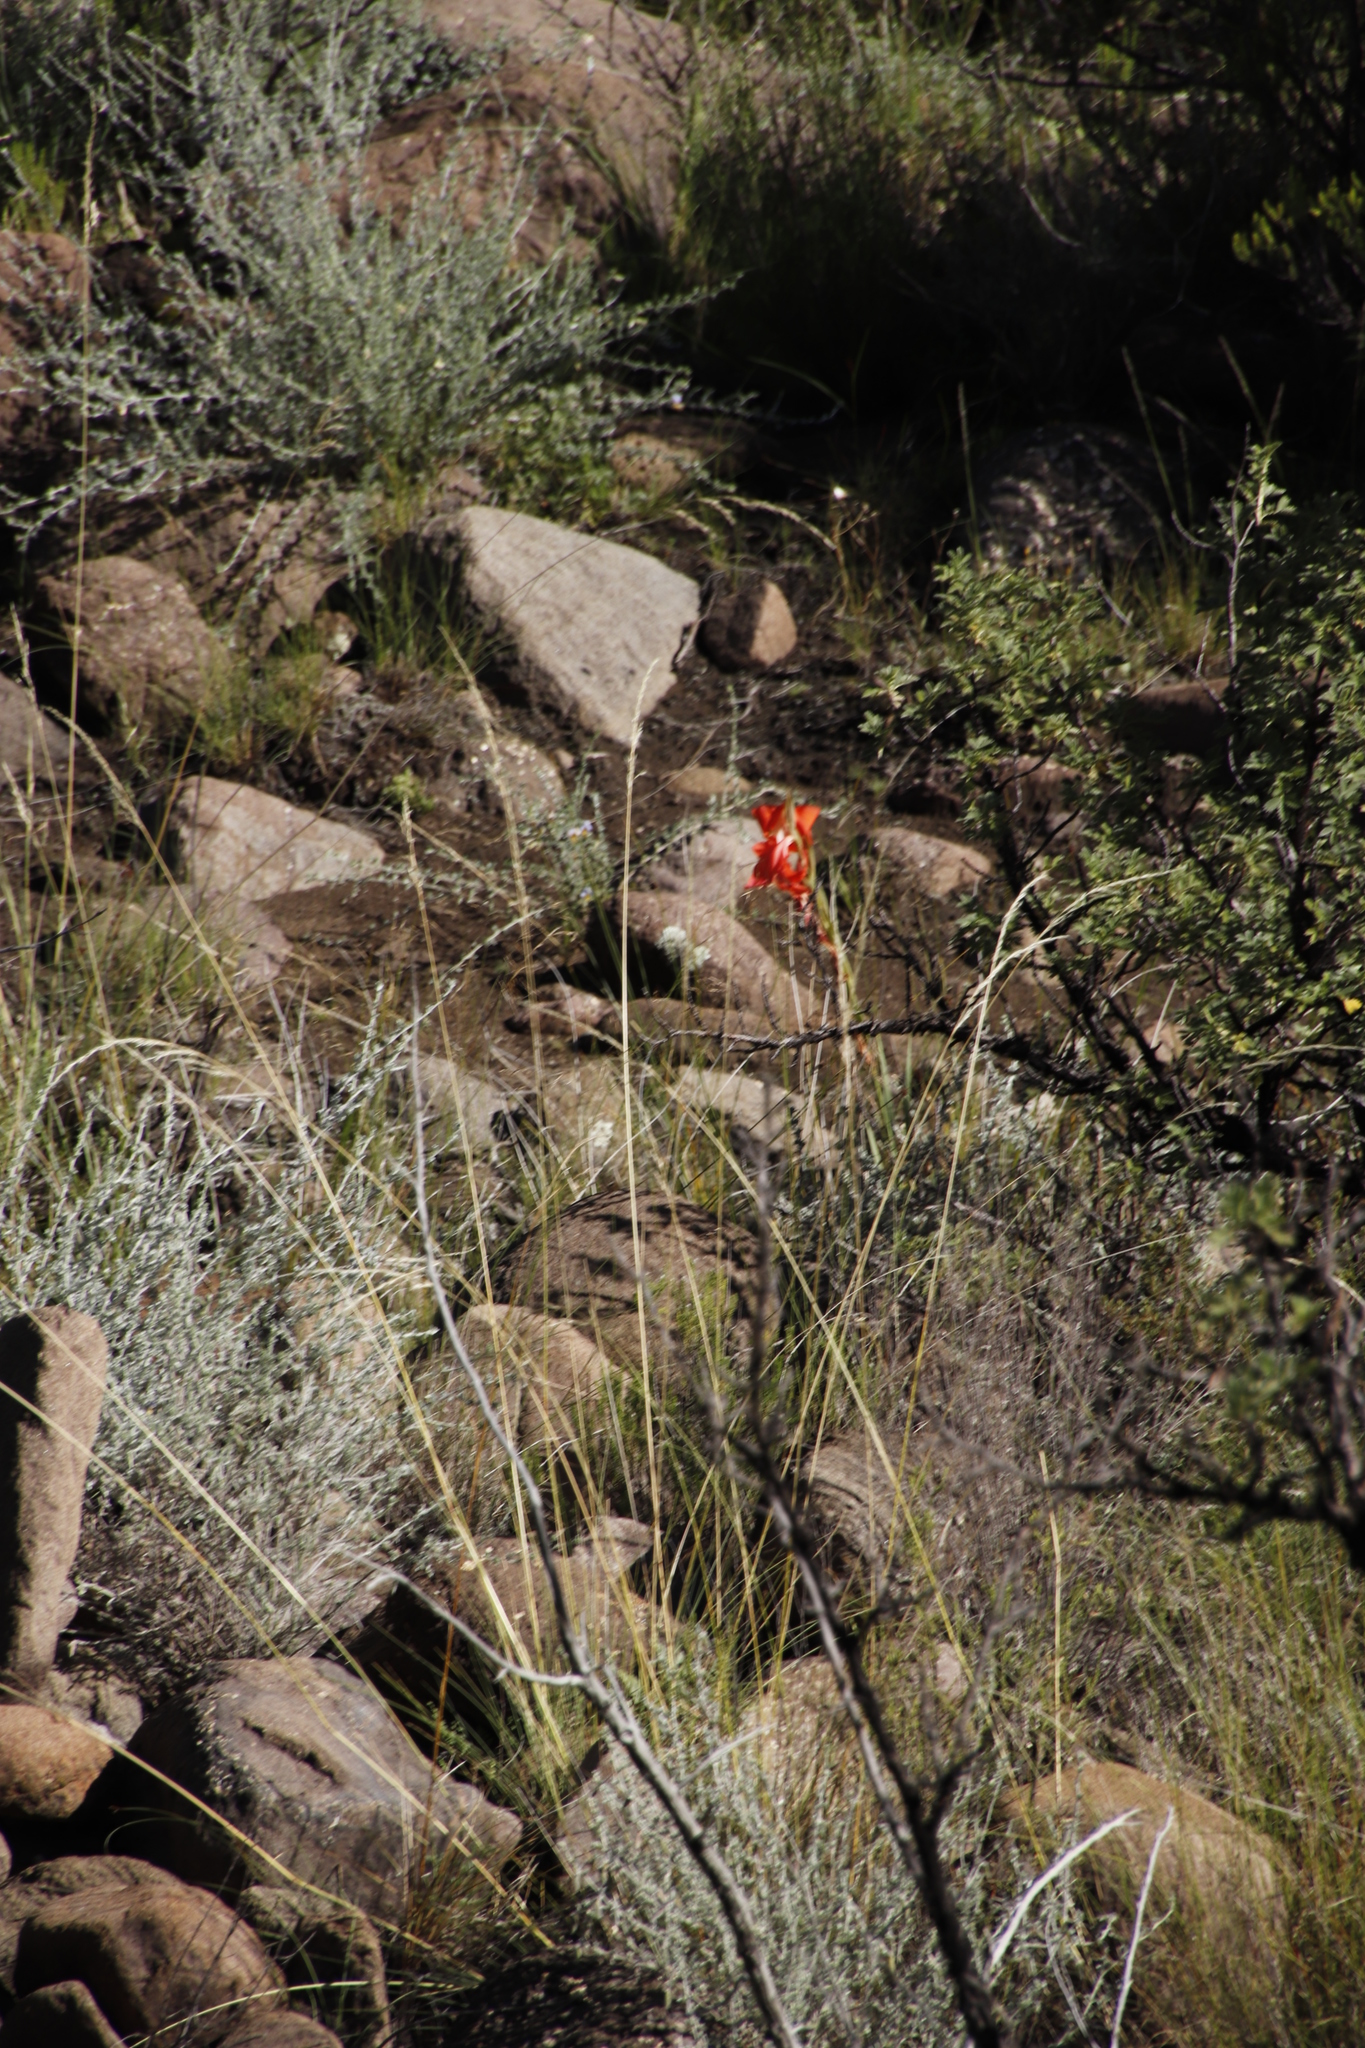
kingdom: Plantae
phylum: Tracheophyta
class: Liliopsida
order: Asparagales
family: Iridaceae
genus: Gladiolus
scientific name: Gladiolus saundersii
